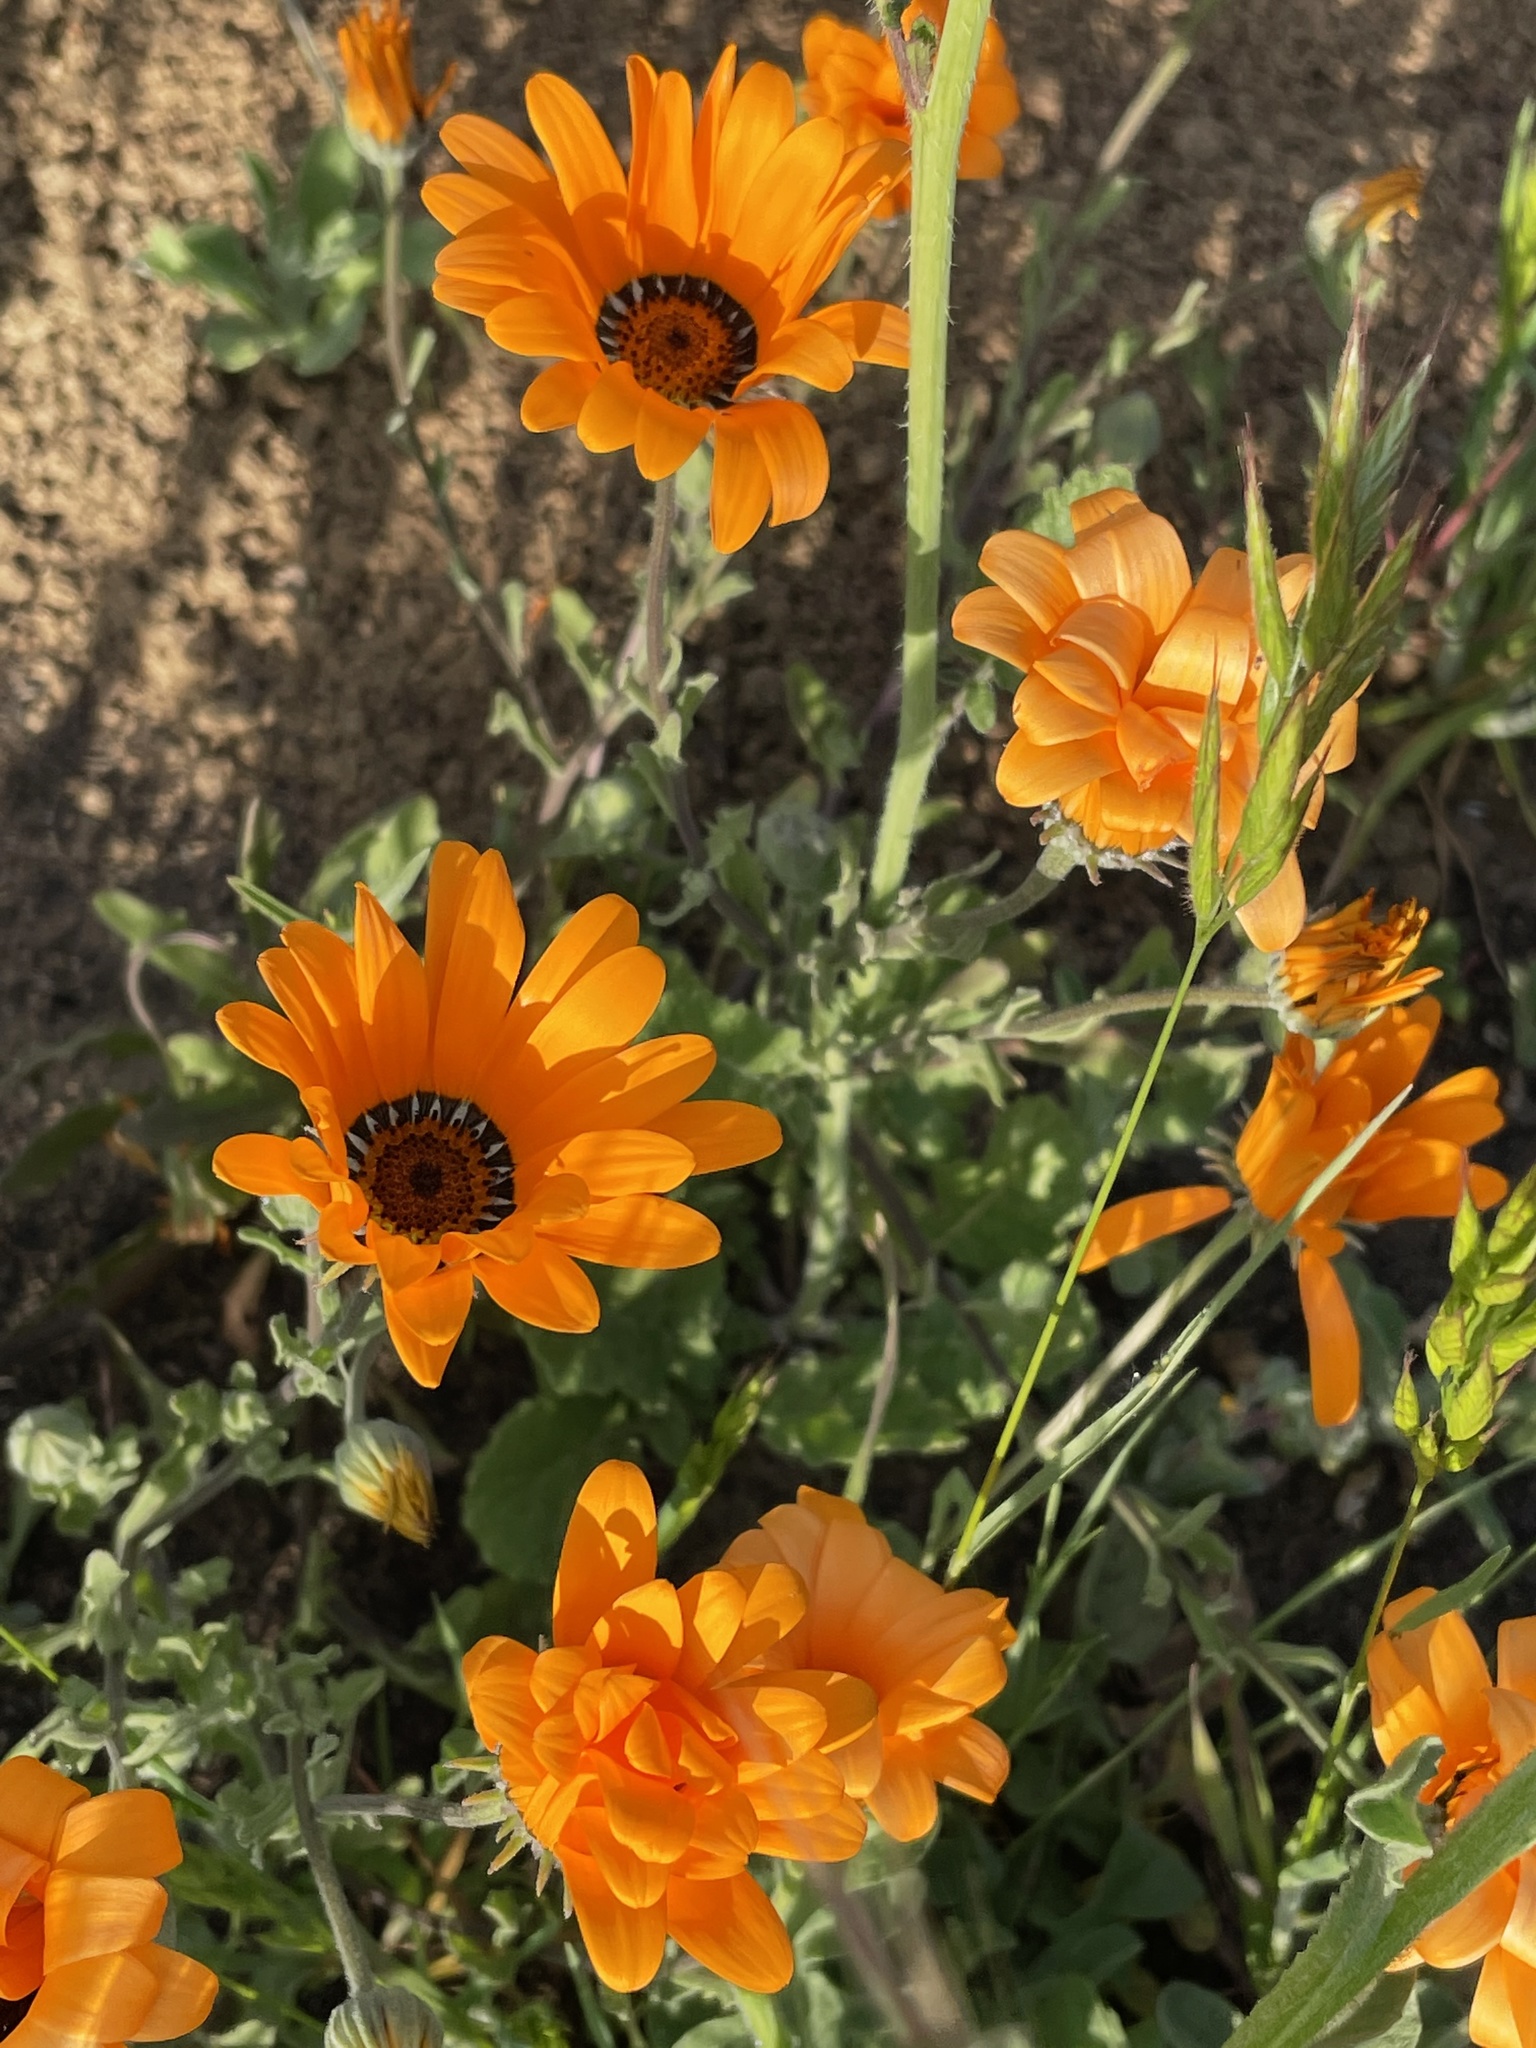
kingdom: Plantae
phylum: Tracheophyta
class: Magnoliopsida
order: Asterales
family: Asteraceae
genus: Dimorphotheca
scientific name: Dimorphotheca sinuata
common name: Glandular cape marigold
